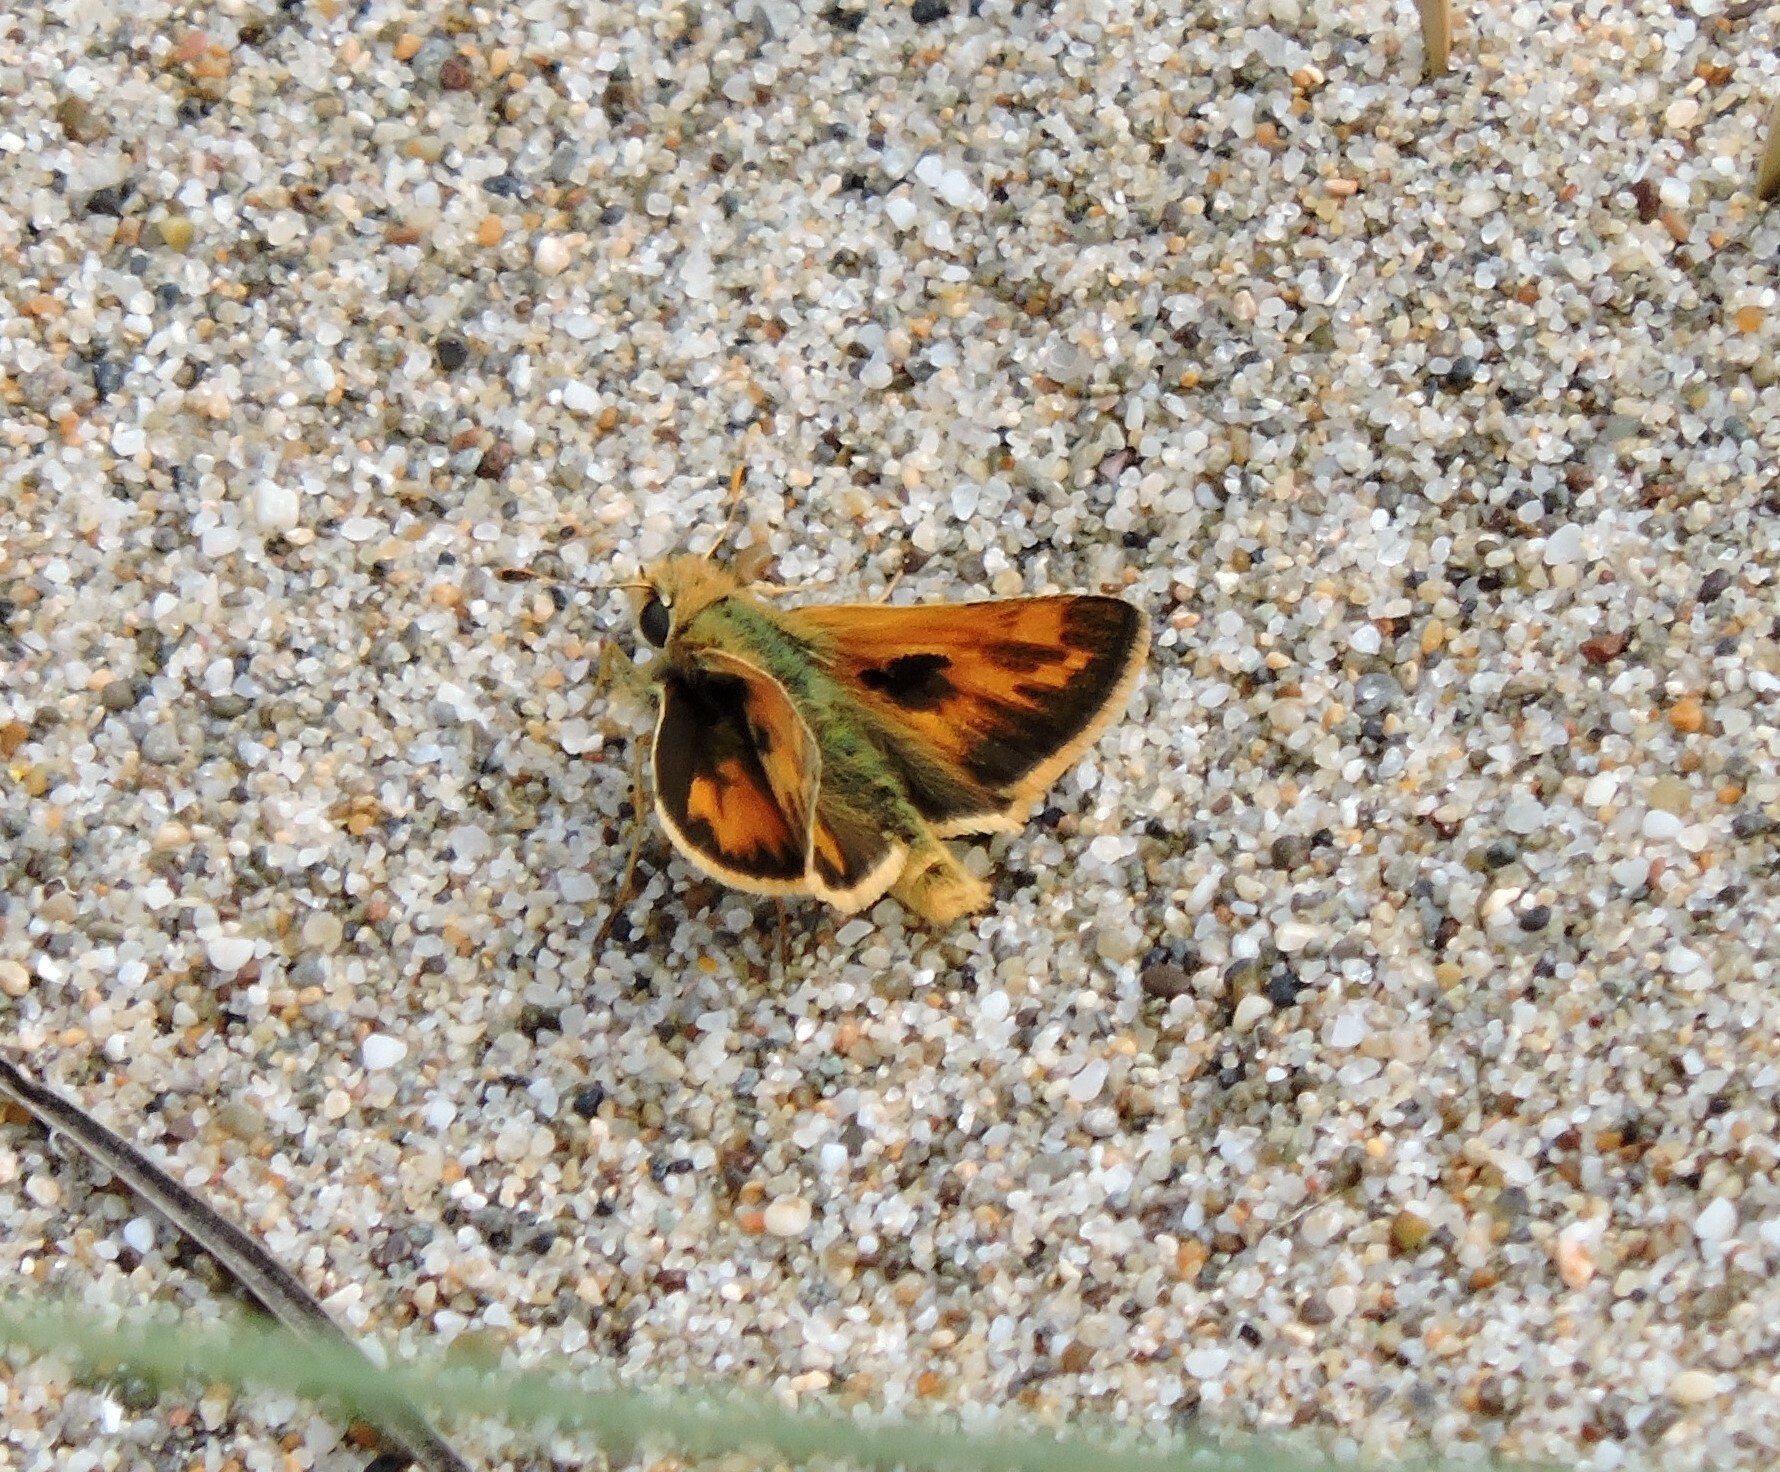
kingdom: Animalia
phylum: Arthropoda
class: Insecta
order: Lepidoptera
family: Hesperiidae
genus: Polites
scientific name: Polites sabuleti
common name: Sandhill skipper
